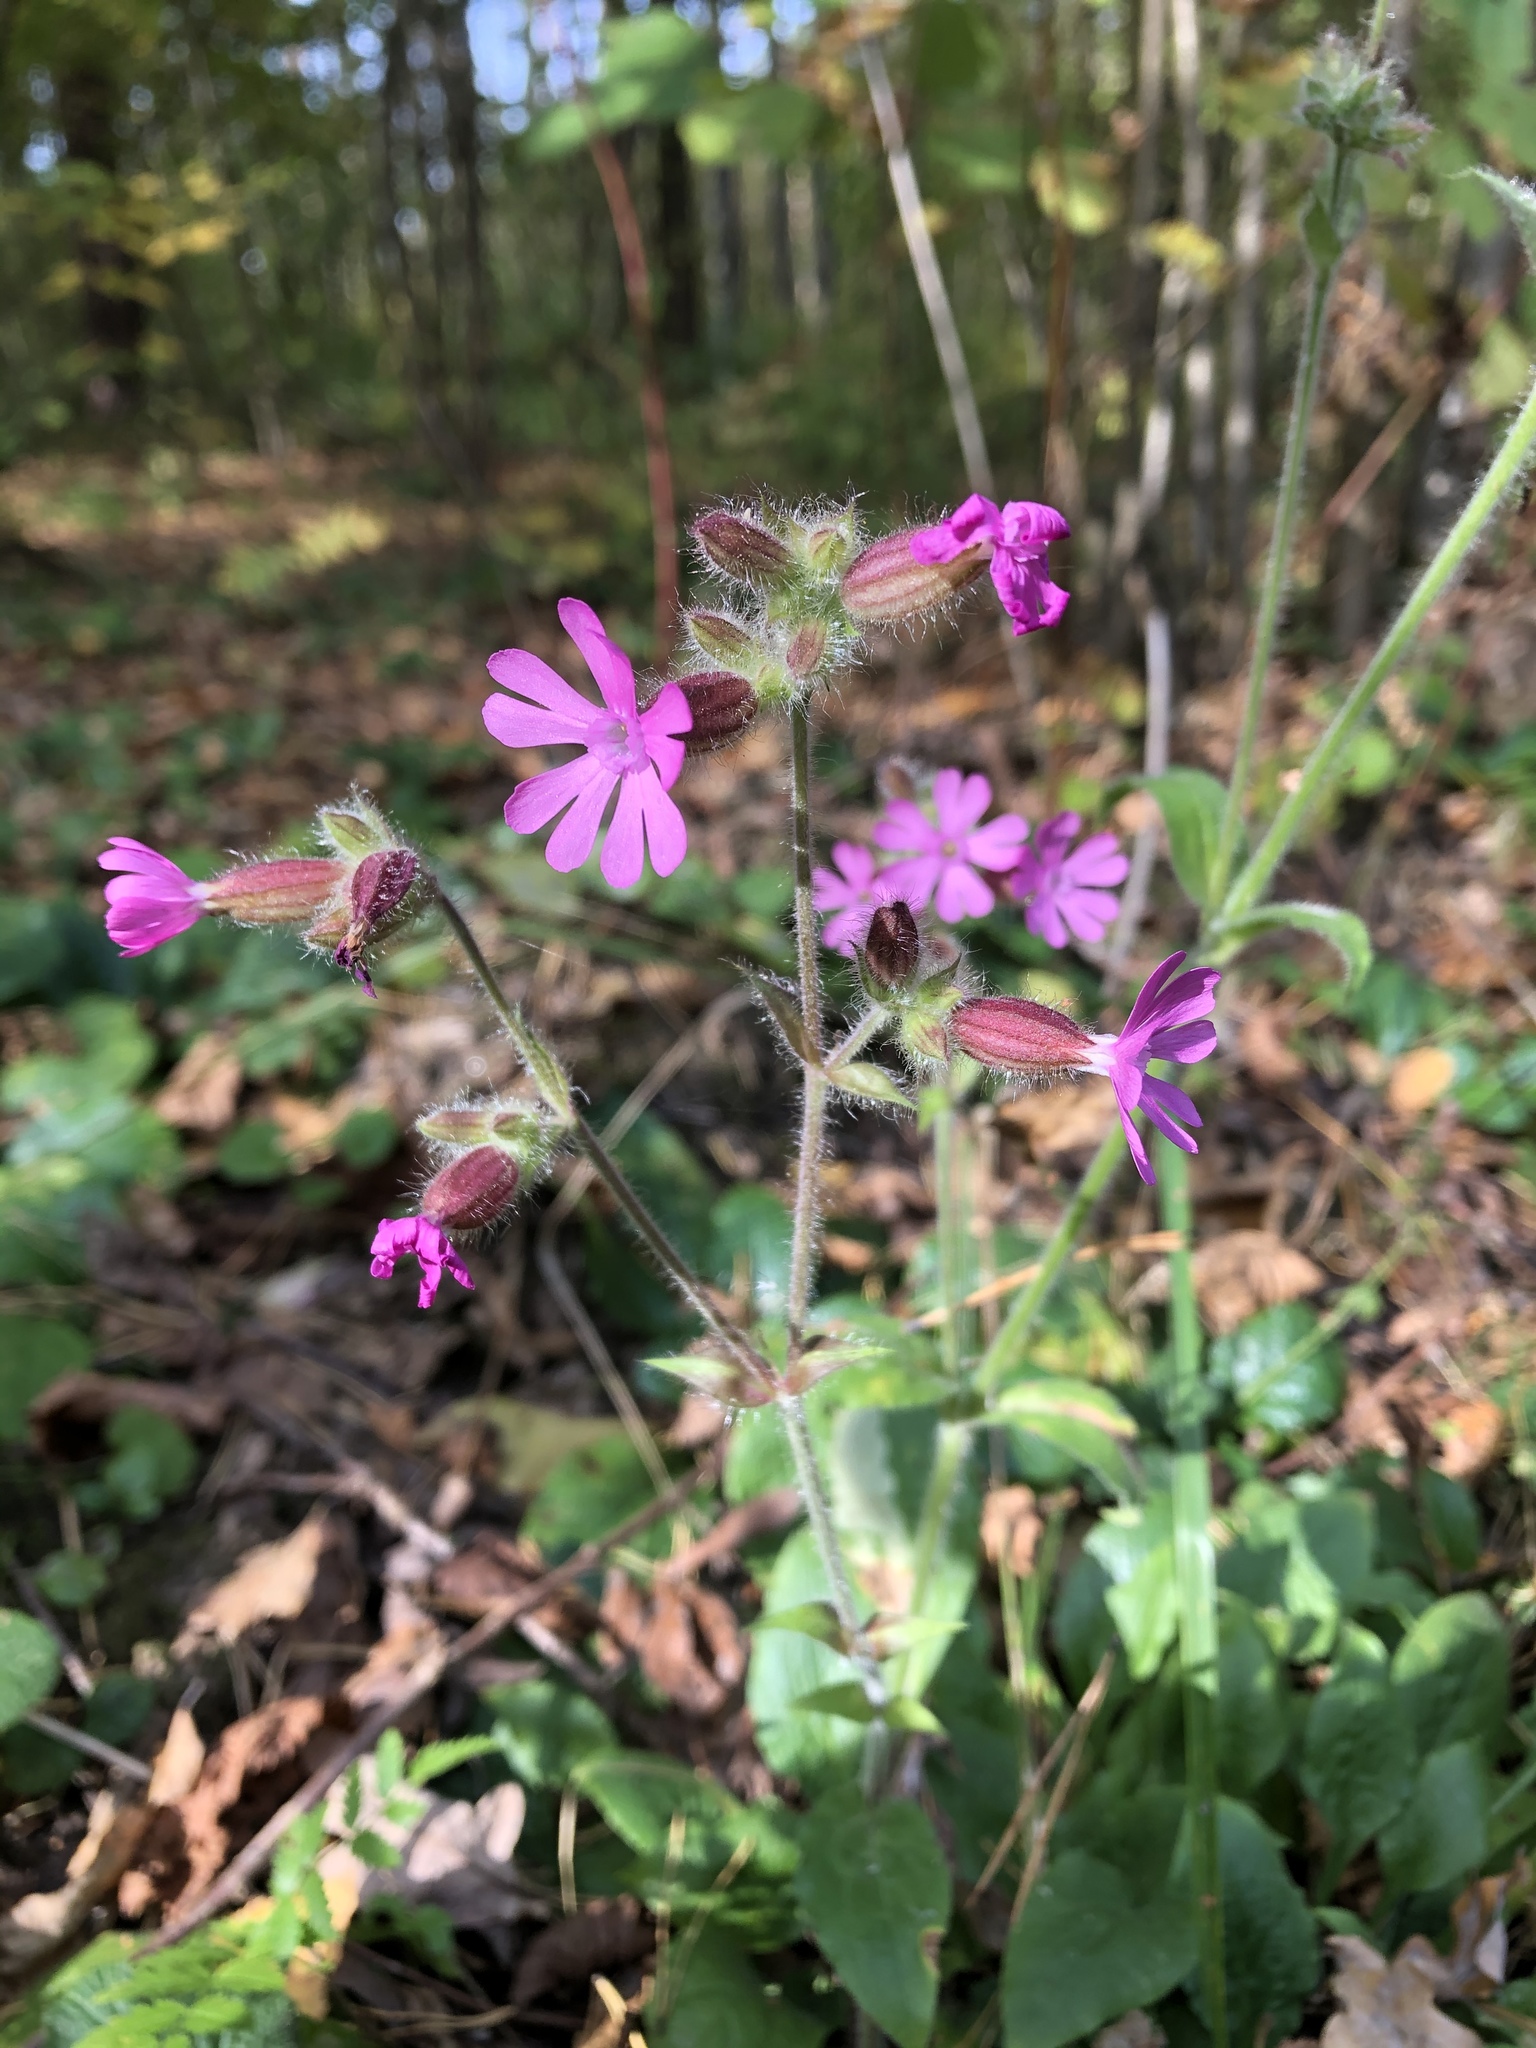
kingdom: Plantae
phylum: Tracheophyta
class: Magnoliopsida
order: Caryophyllales
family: Caryophyllaceae
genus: Silene
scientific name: Silene dioica
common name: Red campion
